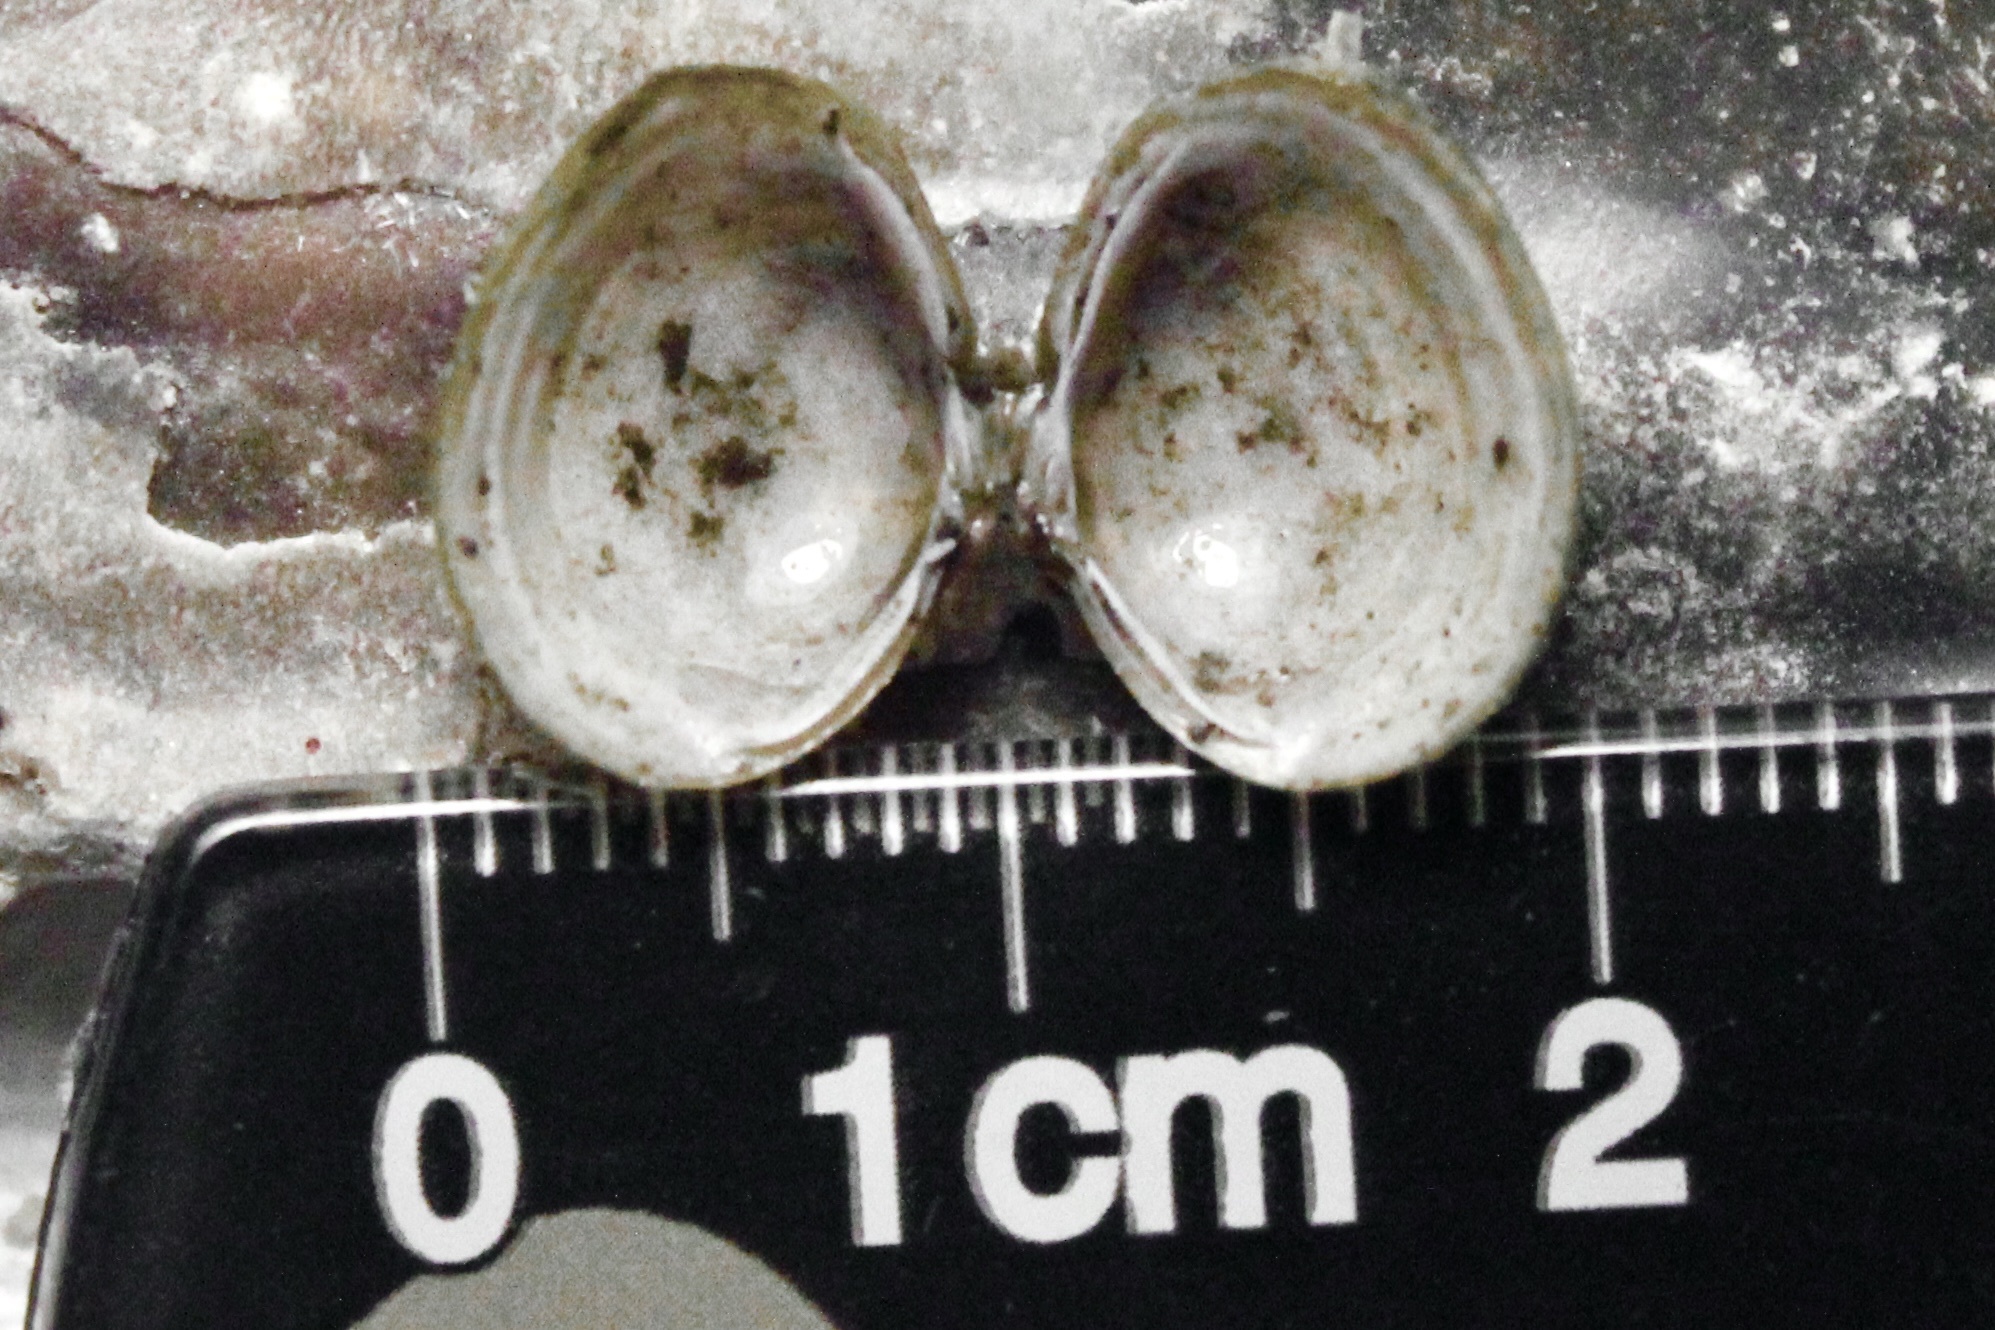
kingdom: Animalia
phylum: Mollusca
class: Bivalvia
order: Venerida
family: Cyrenidae
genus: Corbicula
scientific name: Corbicula fluminea
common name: Asian clam
